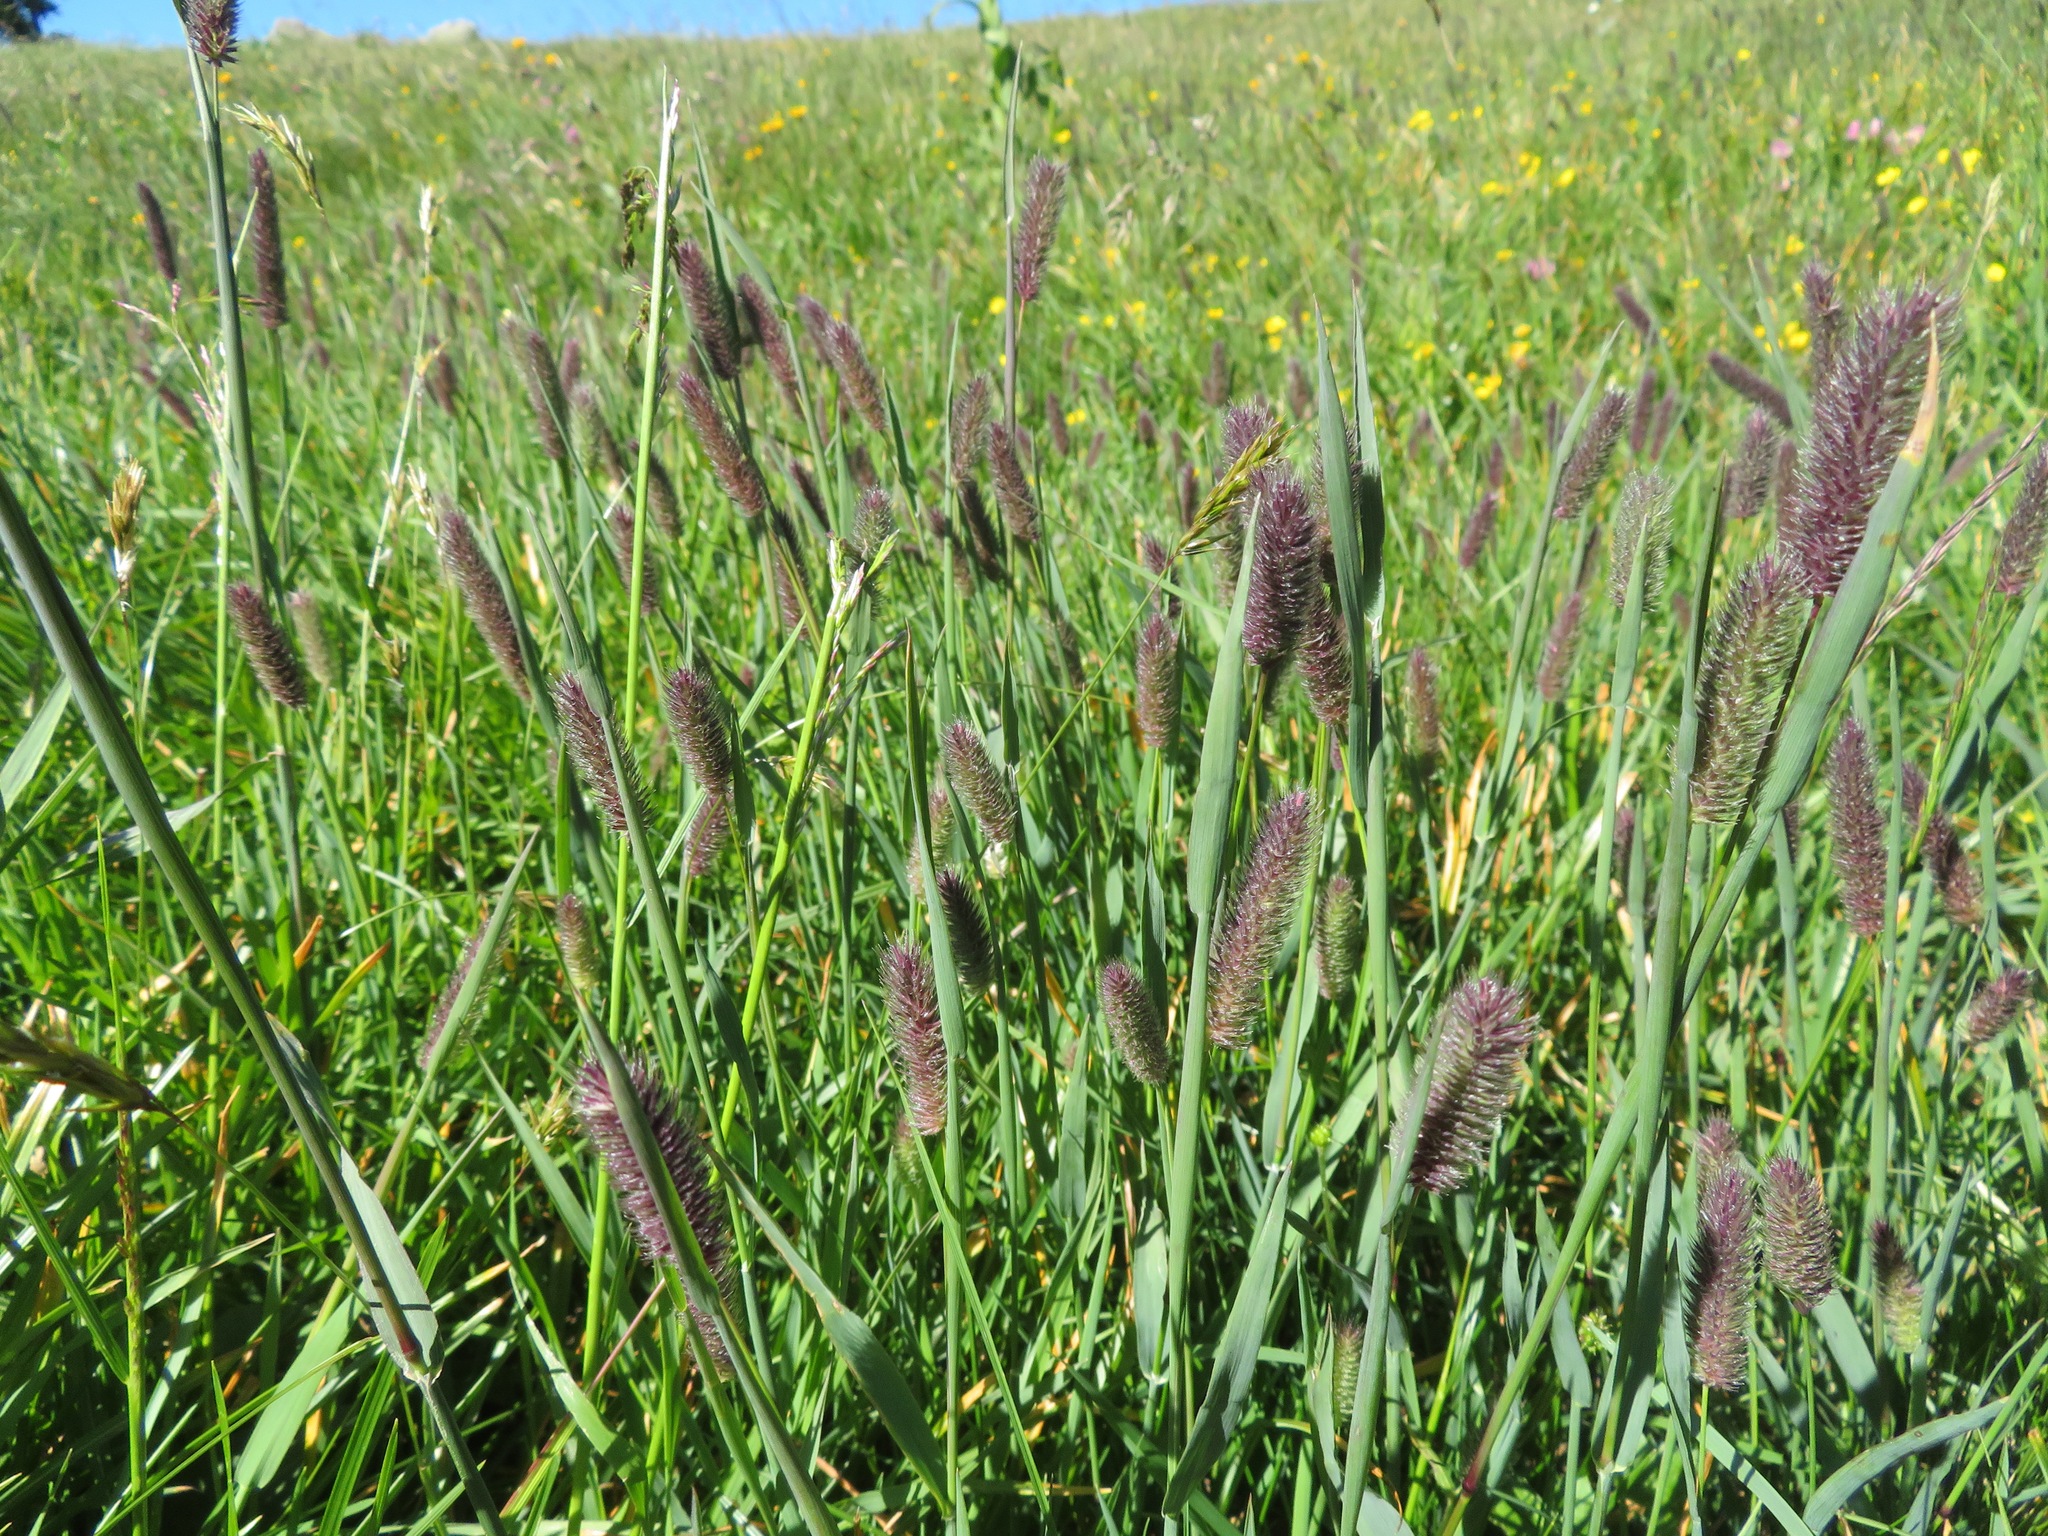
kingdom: Plantae
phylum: Tracheophyta
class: Liliopsida
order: Poales
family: Poaceae
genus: Phleum
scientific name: Phleum alpinum
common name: Alpine cat's-tail
